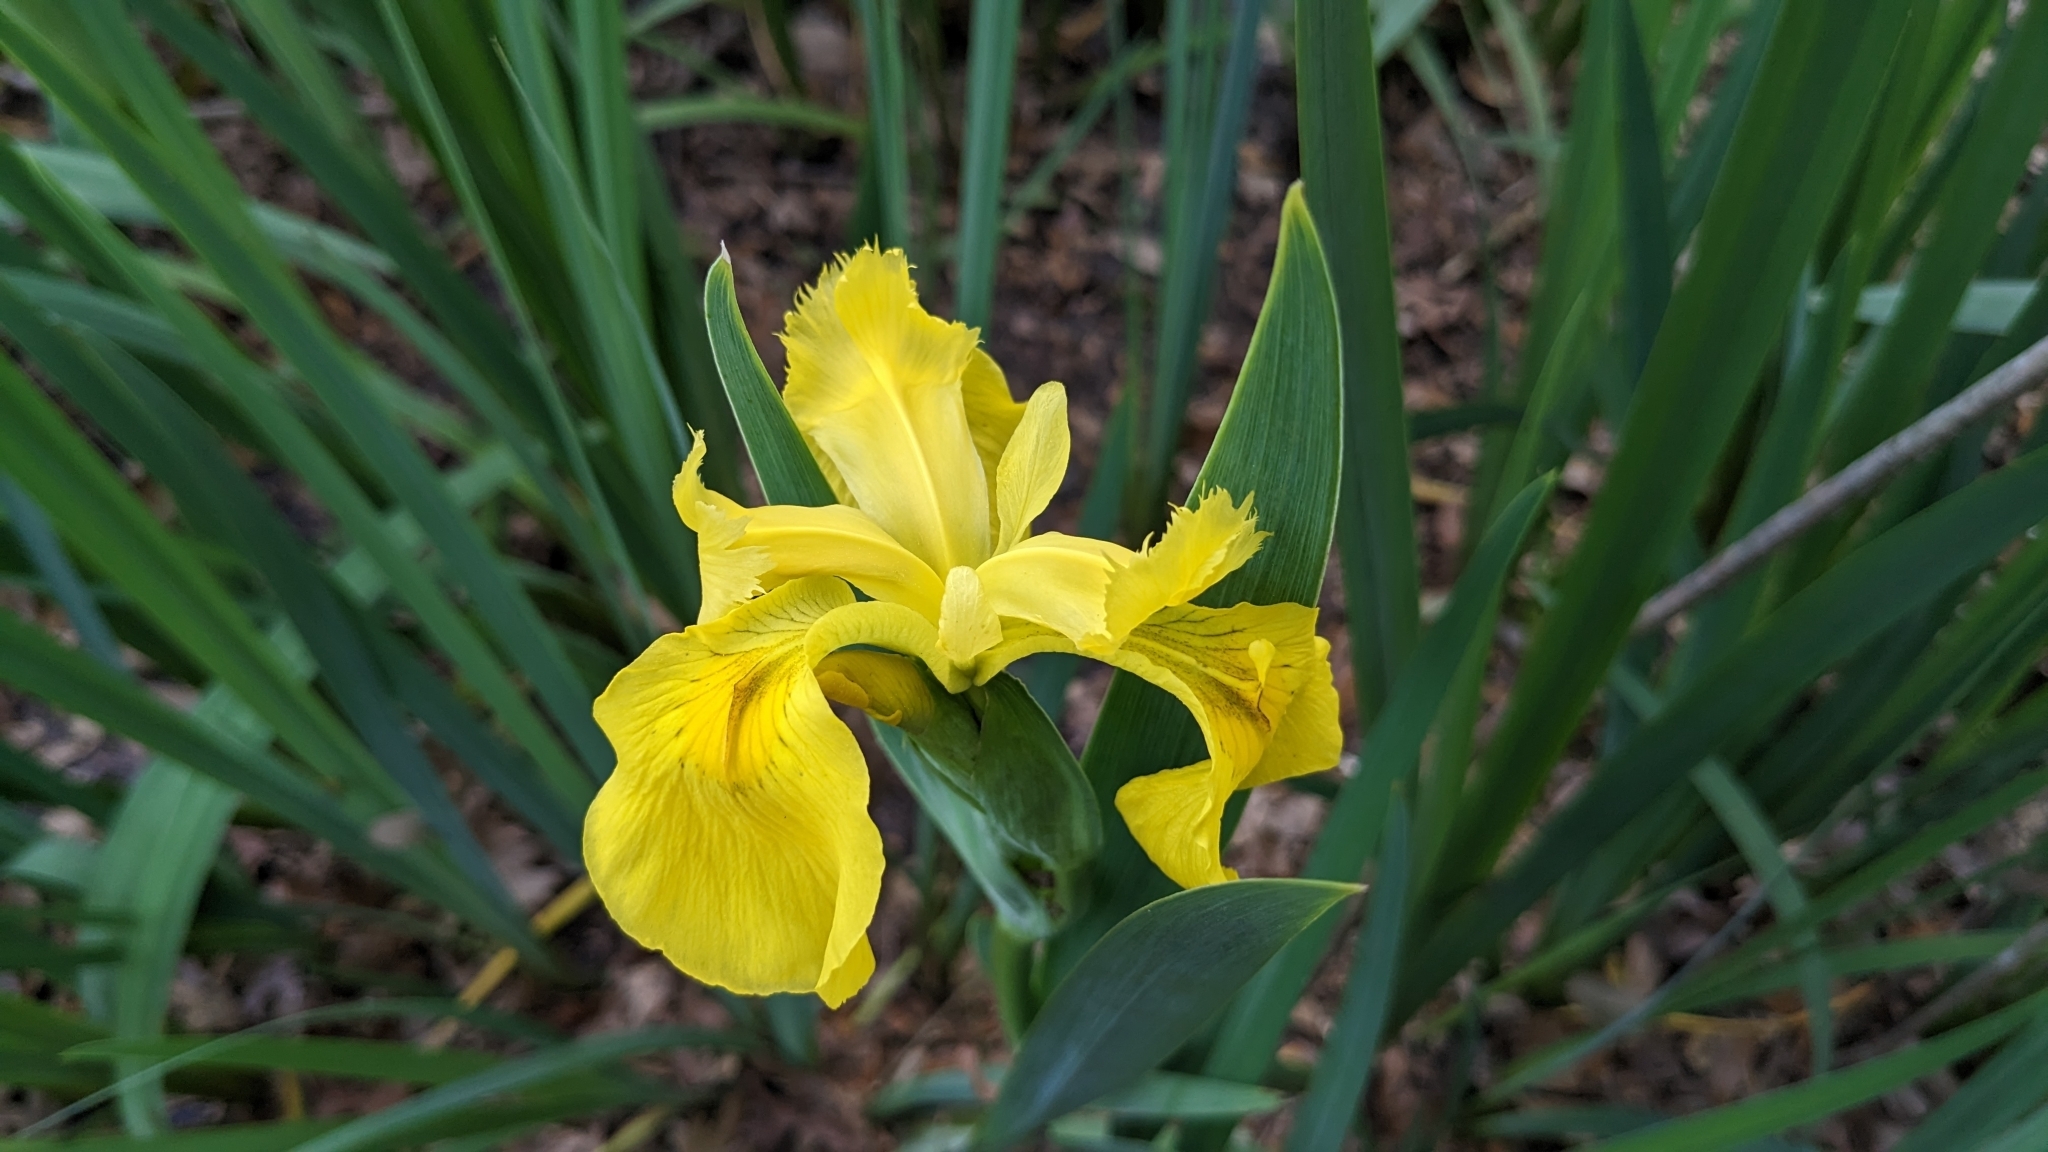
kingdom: Plantae
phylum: Tracheophyta
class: Liliopsida
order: Asparagales
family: Iridaceae
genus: Iris
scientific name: Iris pseudacorus
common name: Yellow flag
